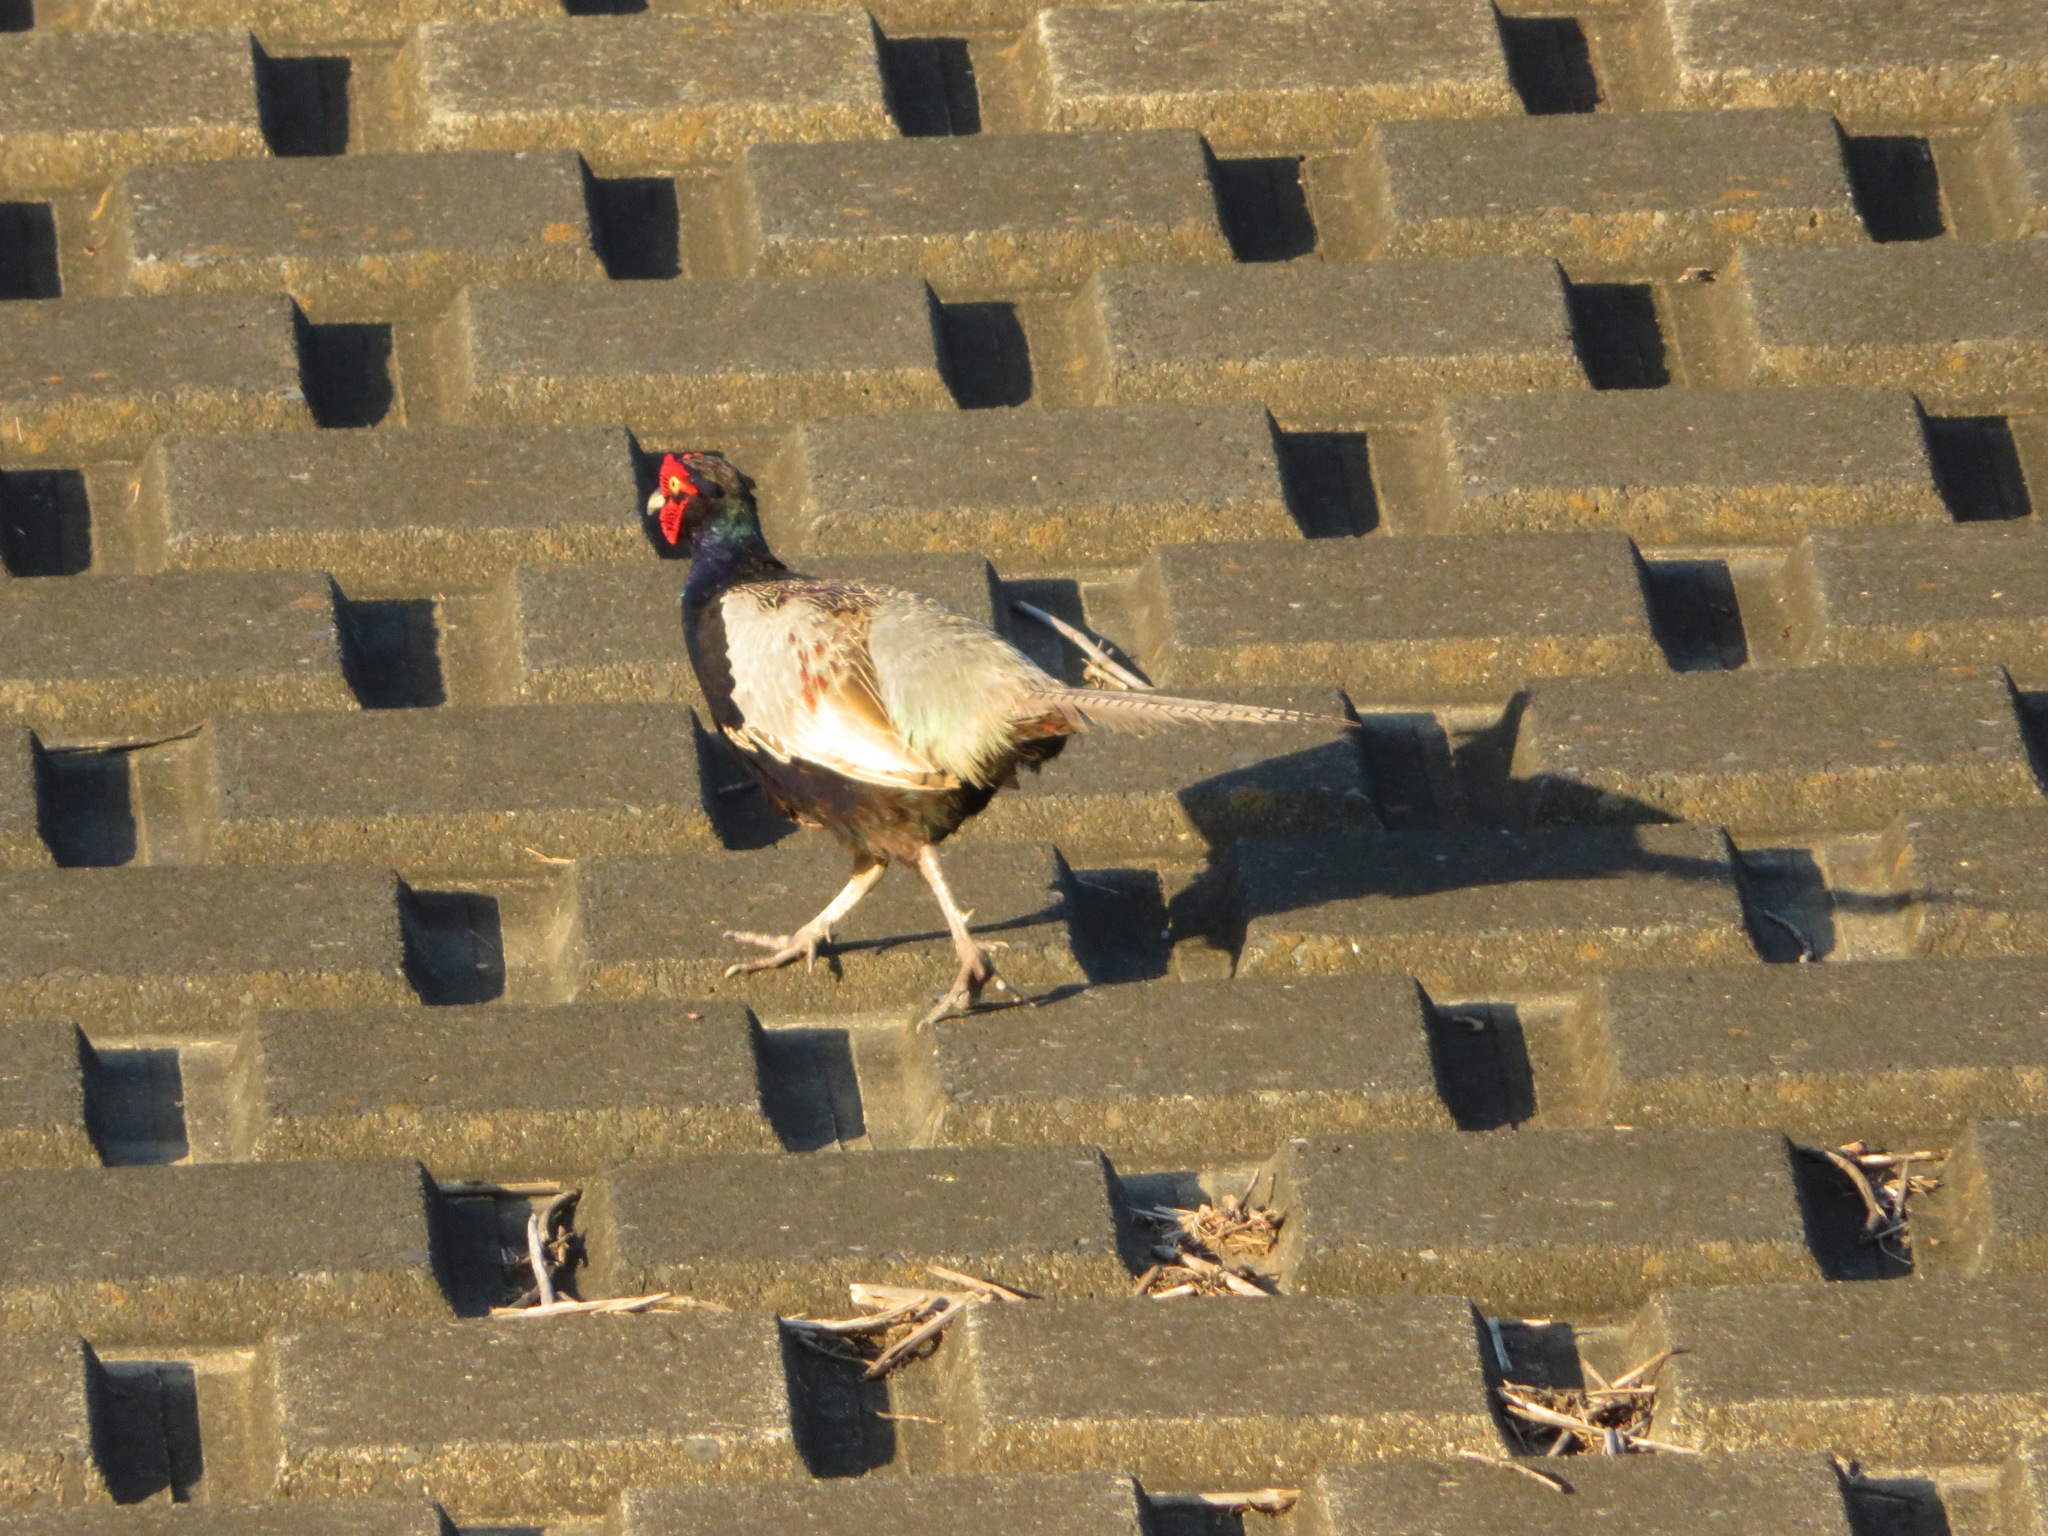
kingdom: Animalia
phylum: Chordata
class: Aves
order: Galliformes
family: Phasianidae
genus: Phasianus
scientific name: Phasianus versicolor
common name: Green pheasant
